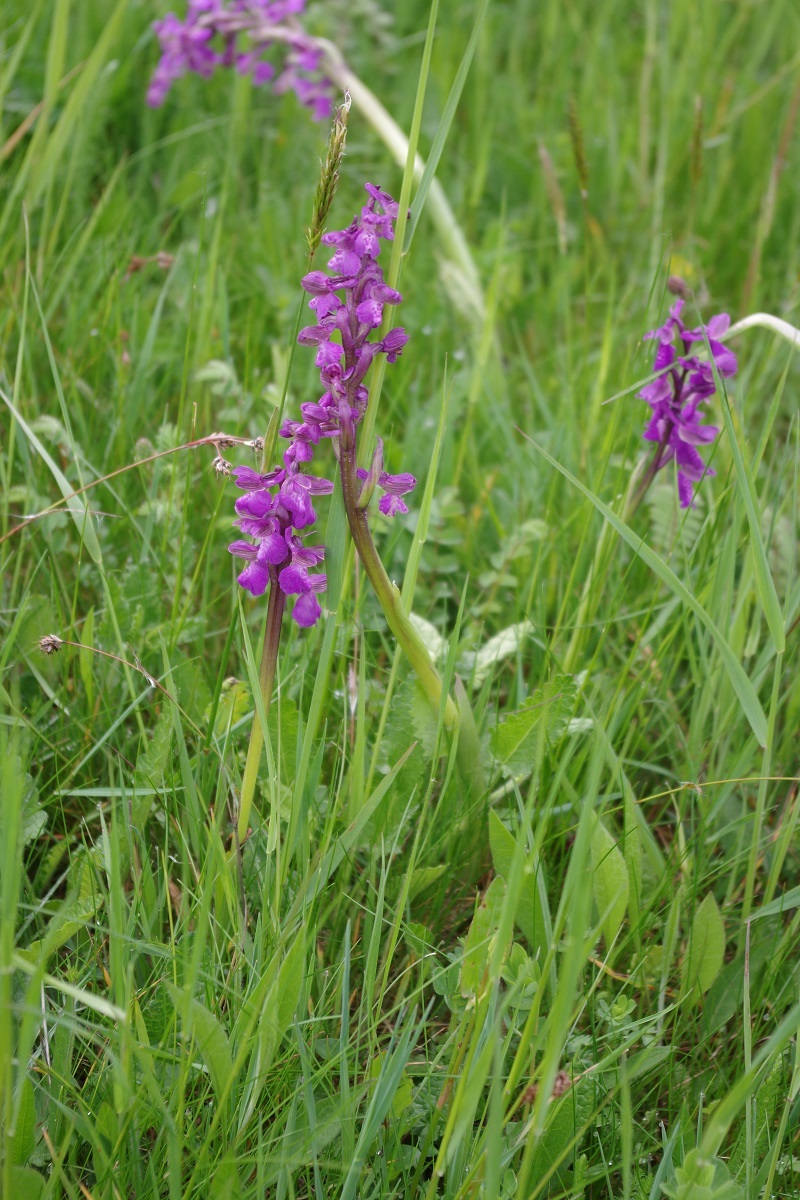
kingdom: Plantae
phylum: Tracheophyta
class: Liliopsida
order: Asparagales
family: Orchidaceae
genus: Anacamptis
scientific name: Anacamptis morio
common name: Green-winged orchid
